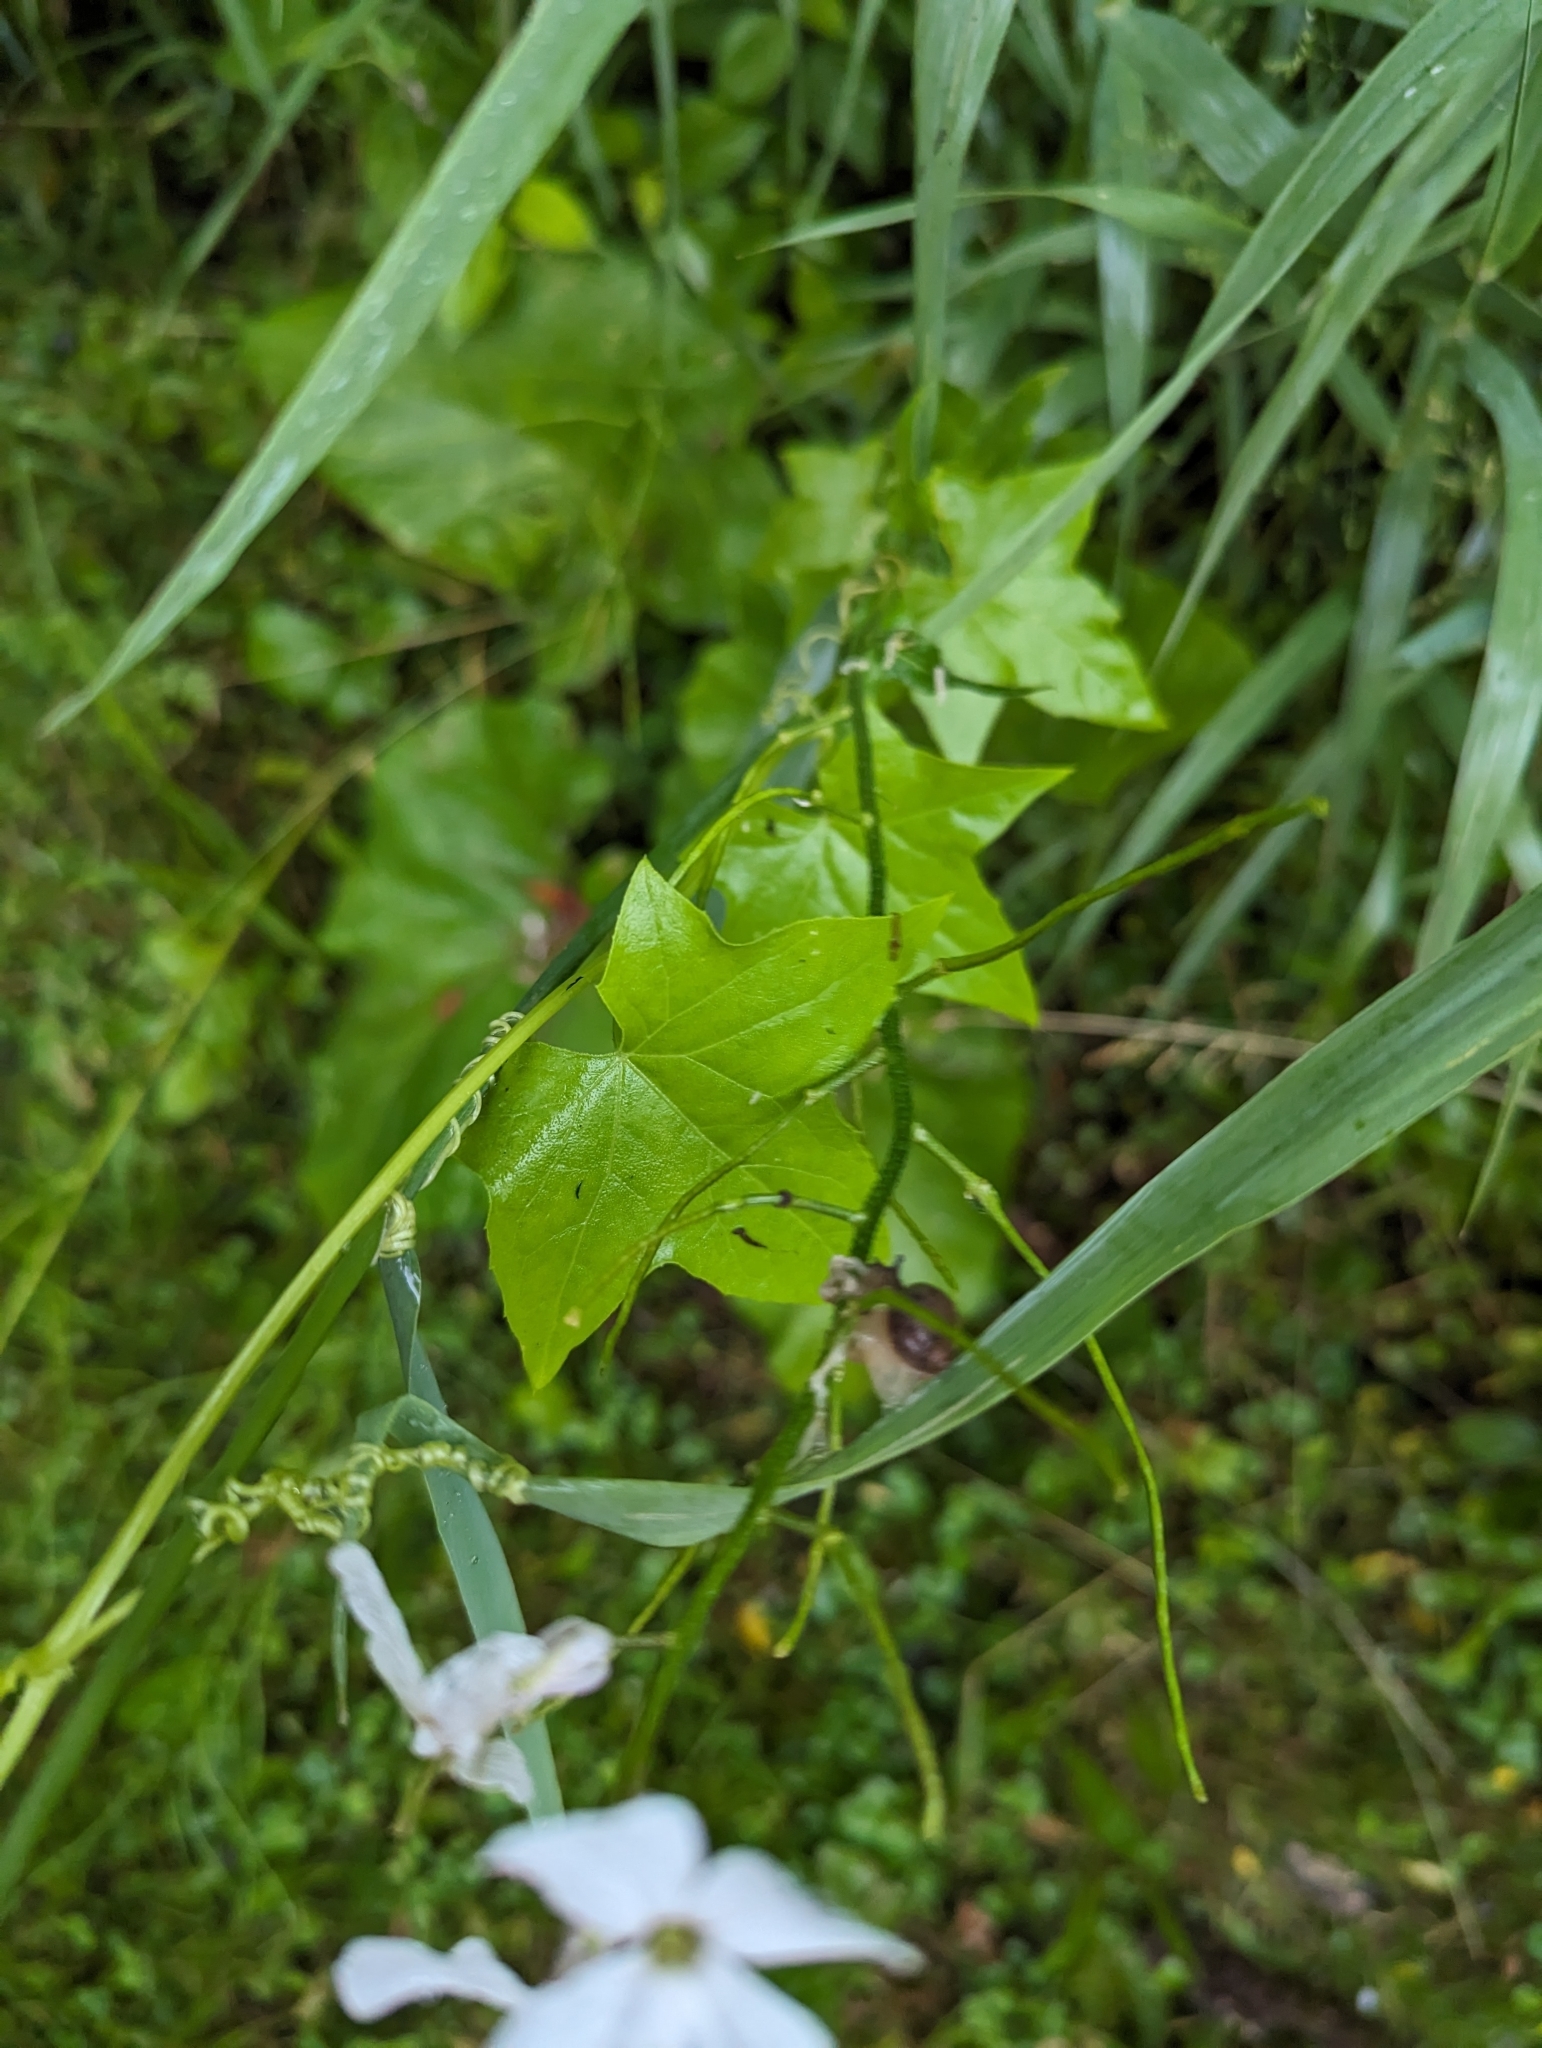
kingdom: Plantae
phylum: Tracheophyta
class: Magnoliopsida
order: Cucurbitales
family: Cucurbitaceae
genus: Echinocystis
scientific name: Echinocystis lobata
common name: Wild cucumber
